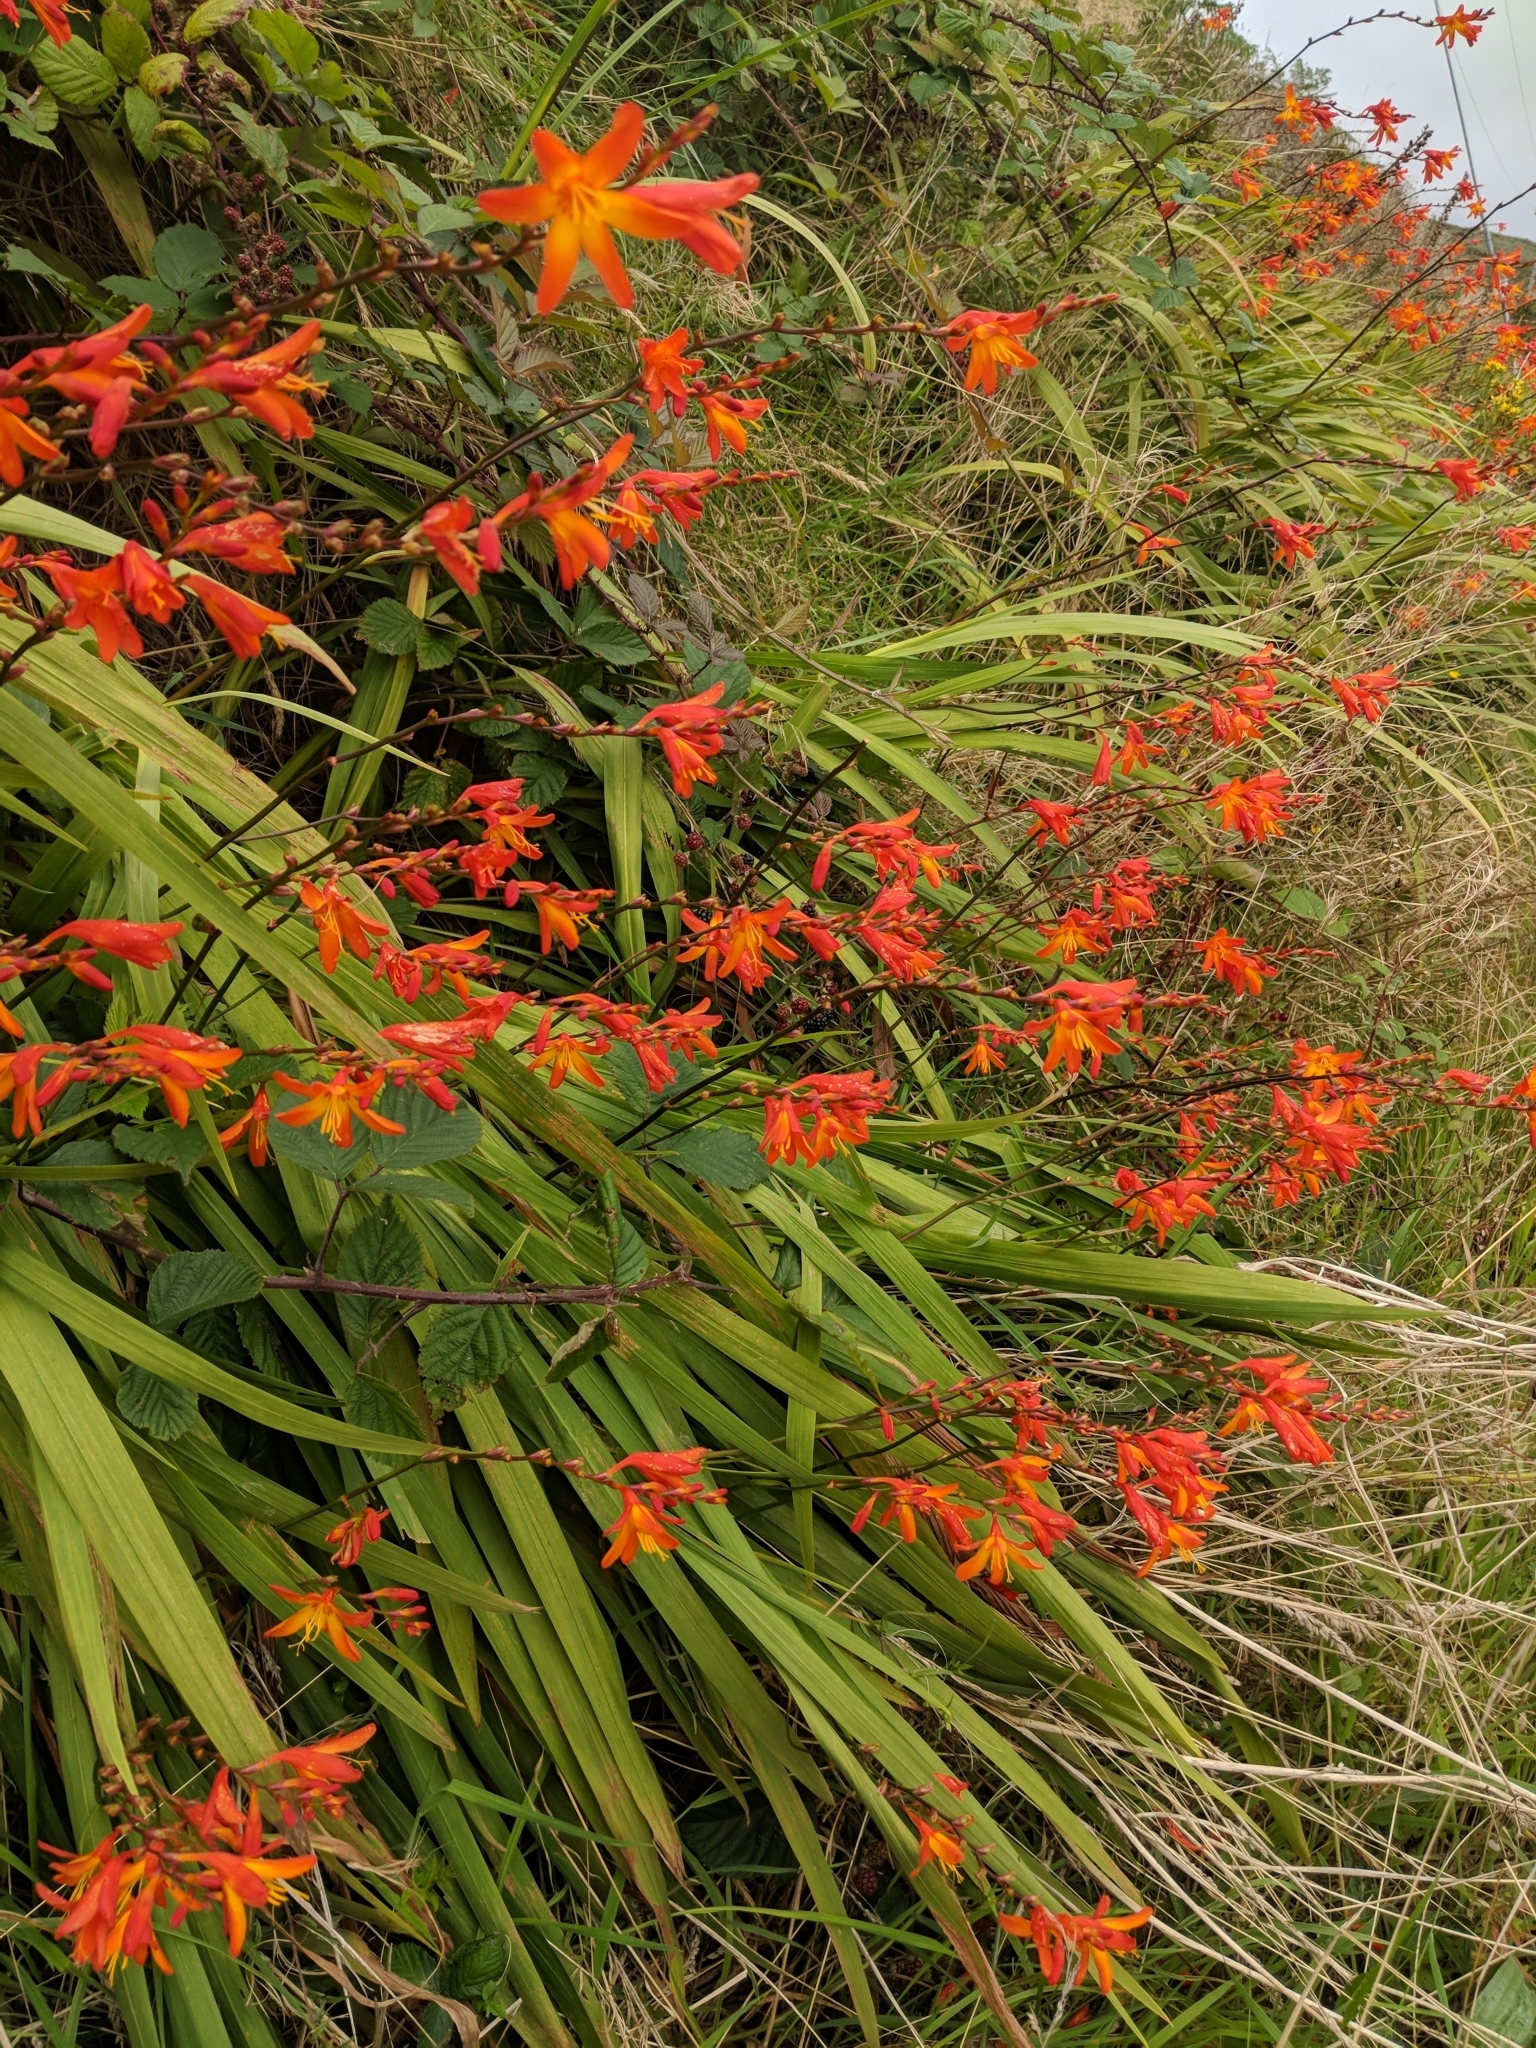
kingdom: Plantae
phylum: Tracheophyta
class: Liliopsida
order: Asparagales
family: Iridaceae
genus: Crocosmia
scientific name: Crocosmia crocosmiiflora
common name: Montbretia
